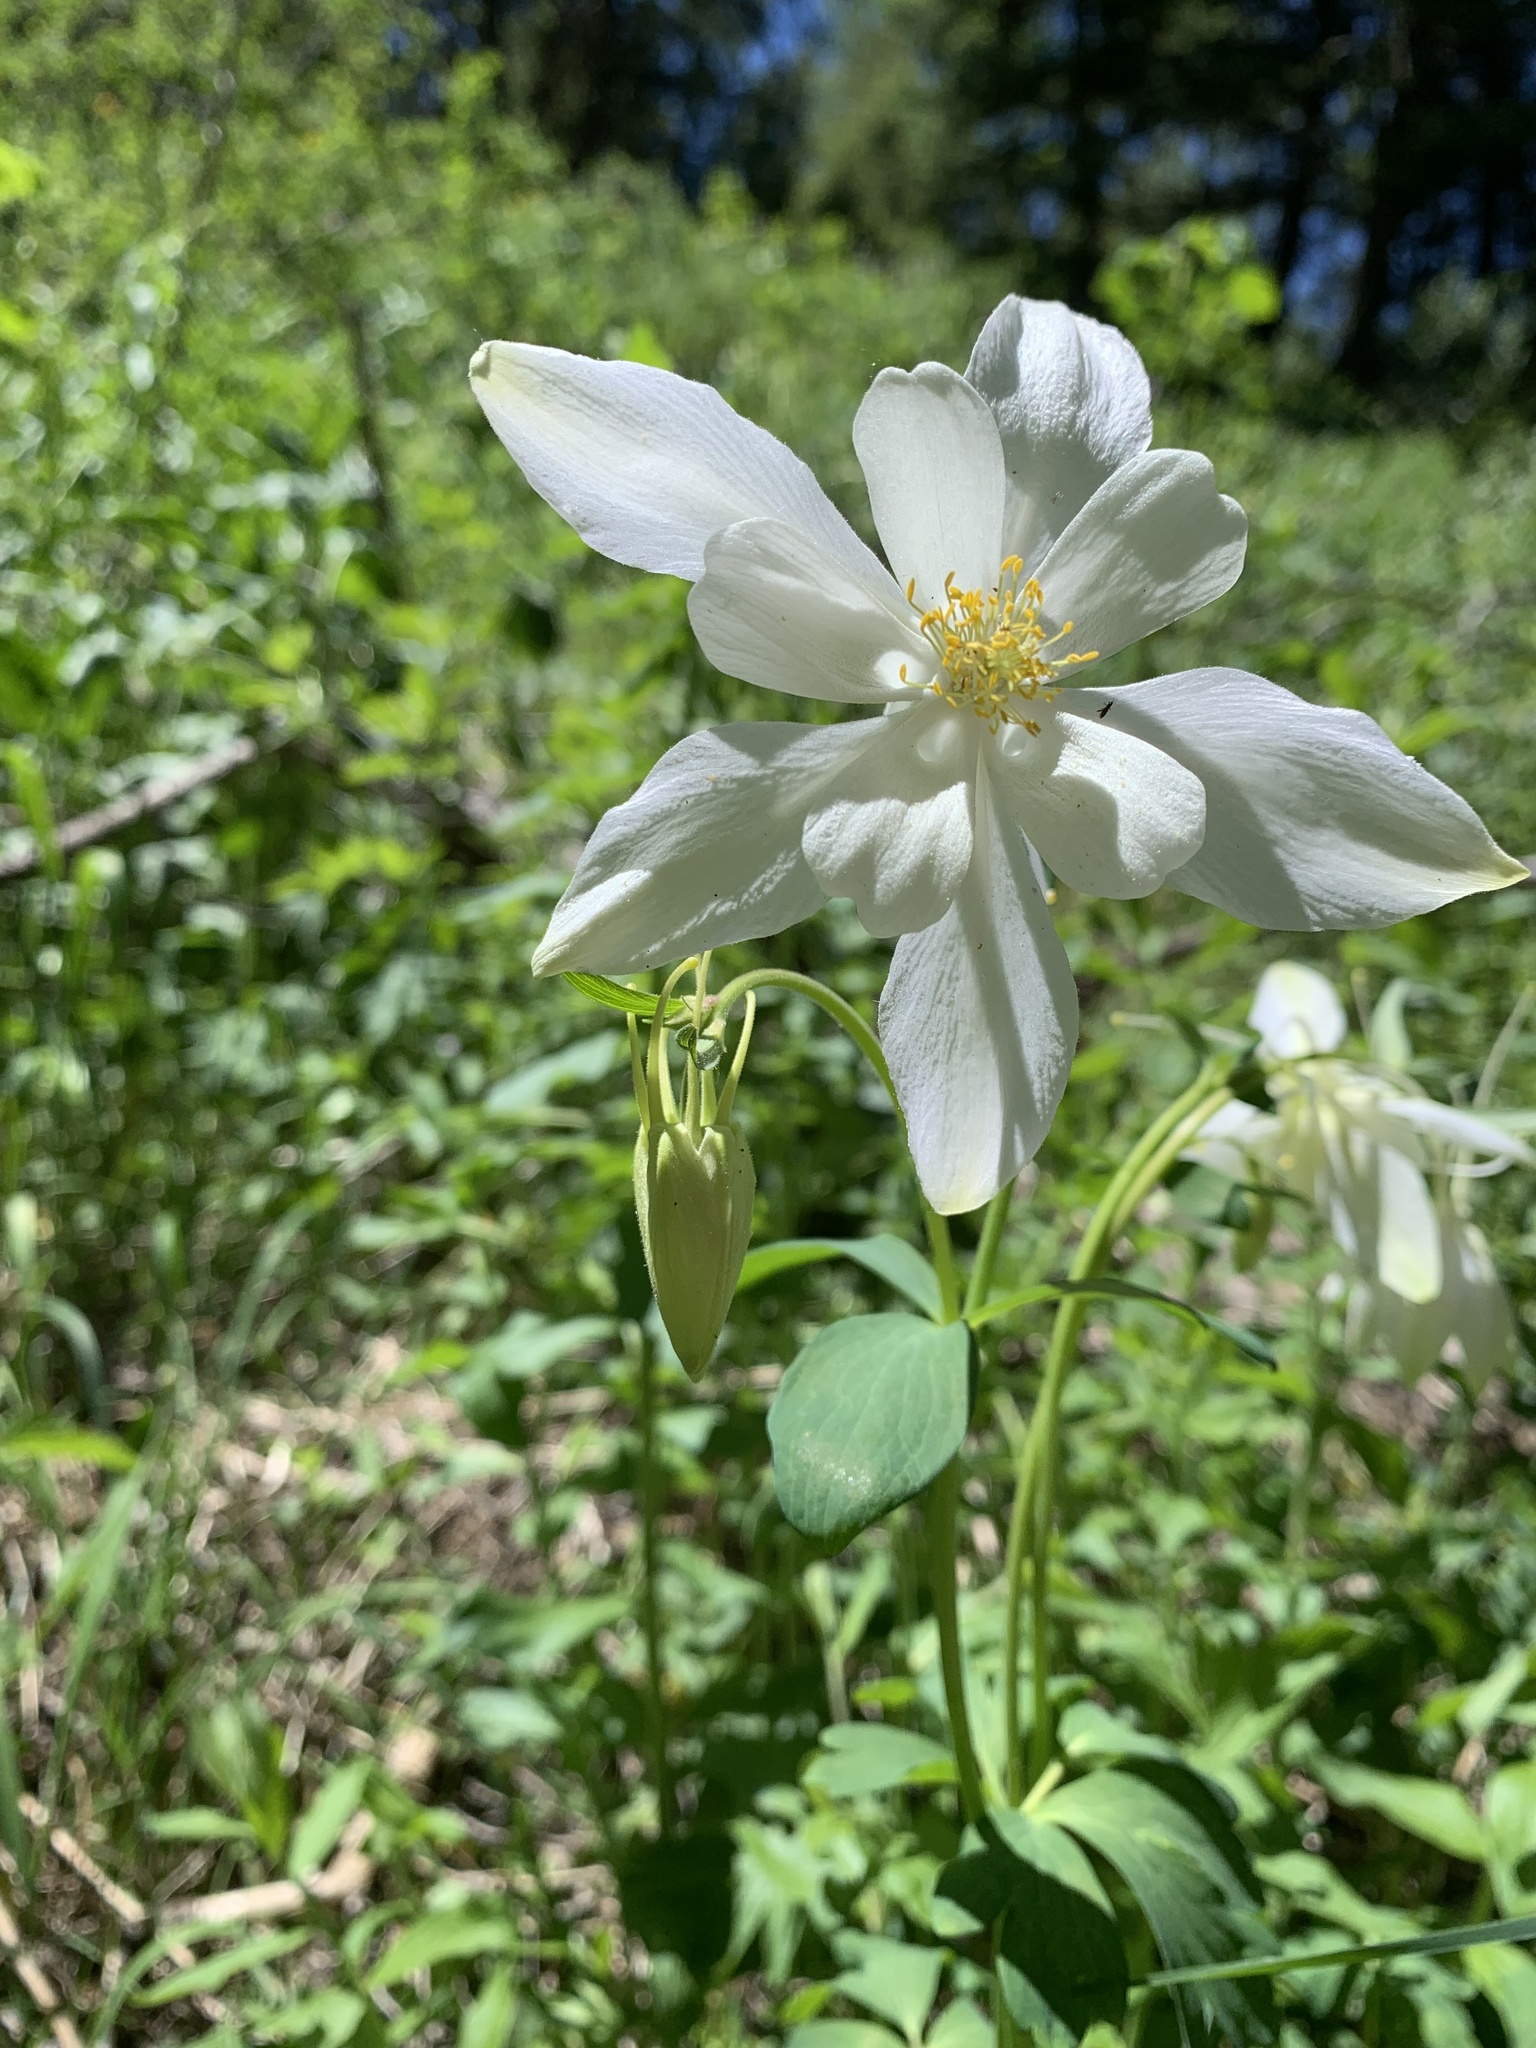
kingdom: Plantae
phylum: Tracheophyta
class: Magnoliopsida
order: Ranunculales
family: Ranunculaceae
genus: Aquilegia
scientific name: Aquilegia coerulea
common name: Rocky mountain columbine
